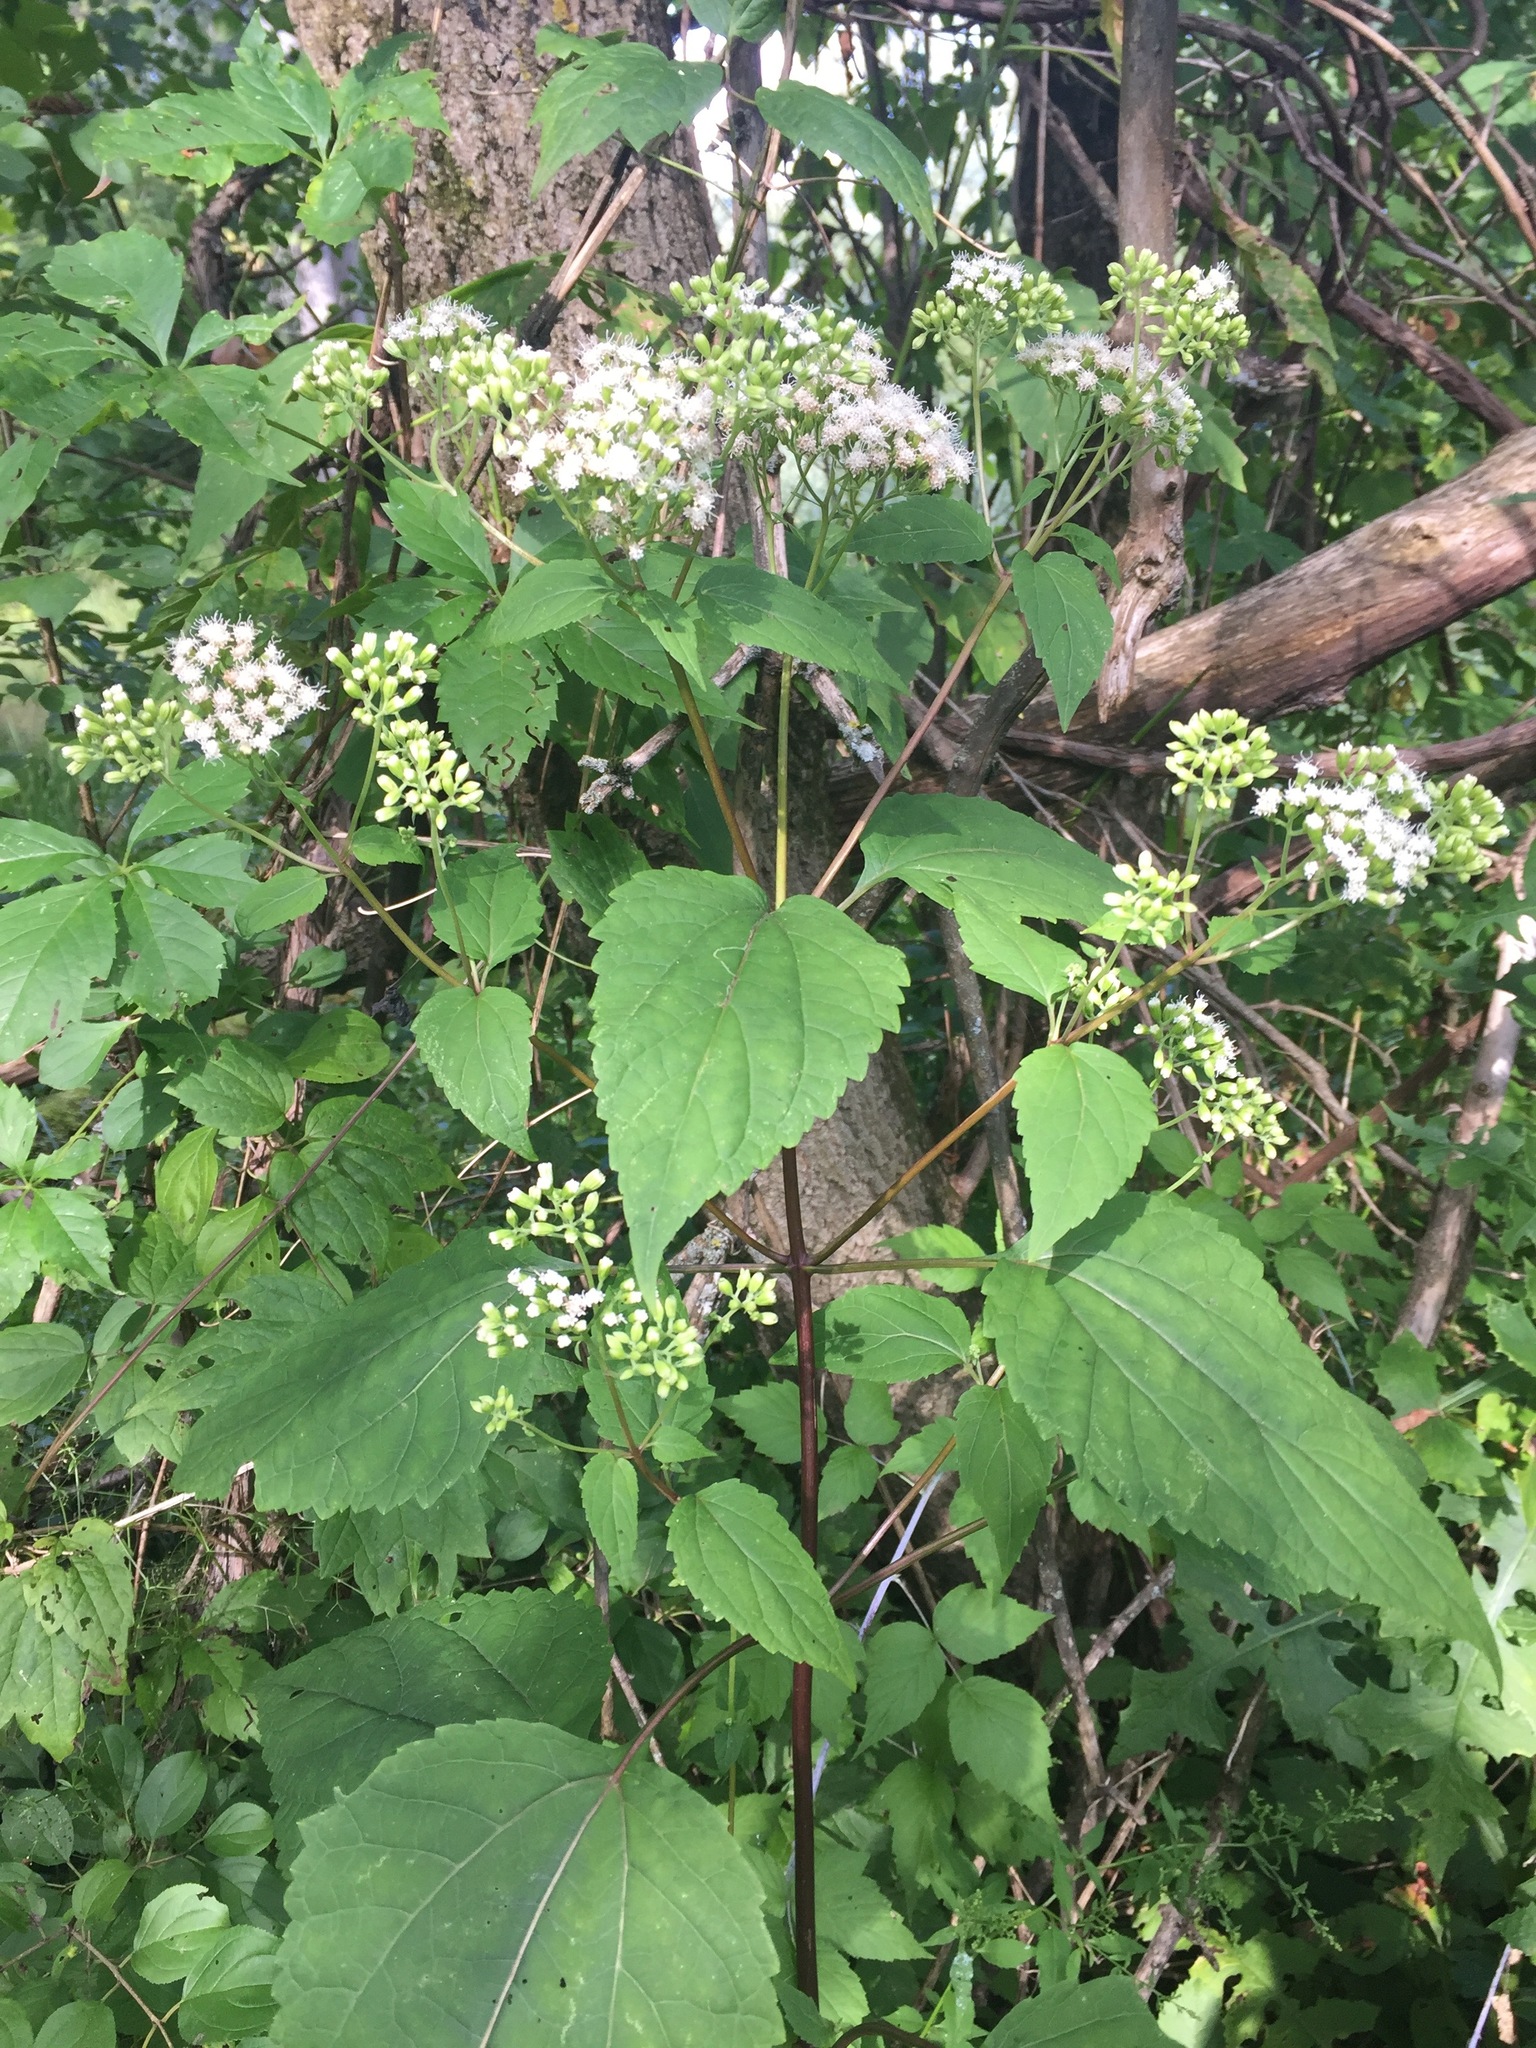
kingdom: Plantae
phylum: Tracheophyta
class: Magnoliopsida
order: Asterales
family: Asteraceae
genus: Ageratina
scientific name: Ageratina altissima
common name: White snakeroot
